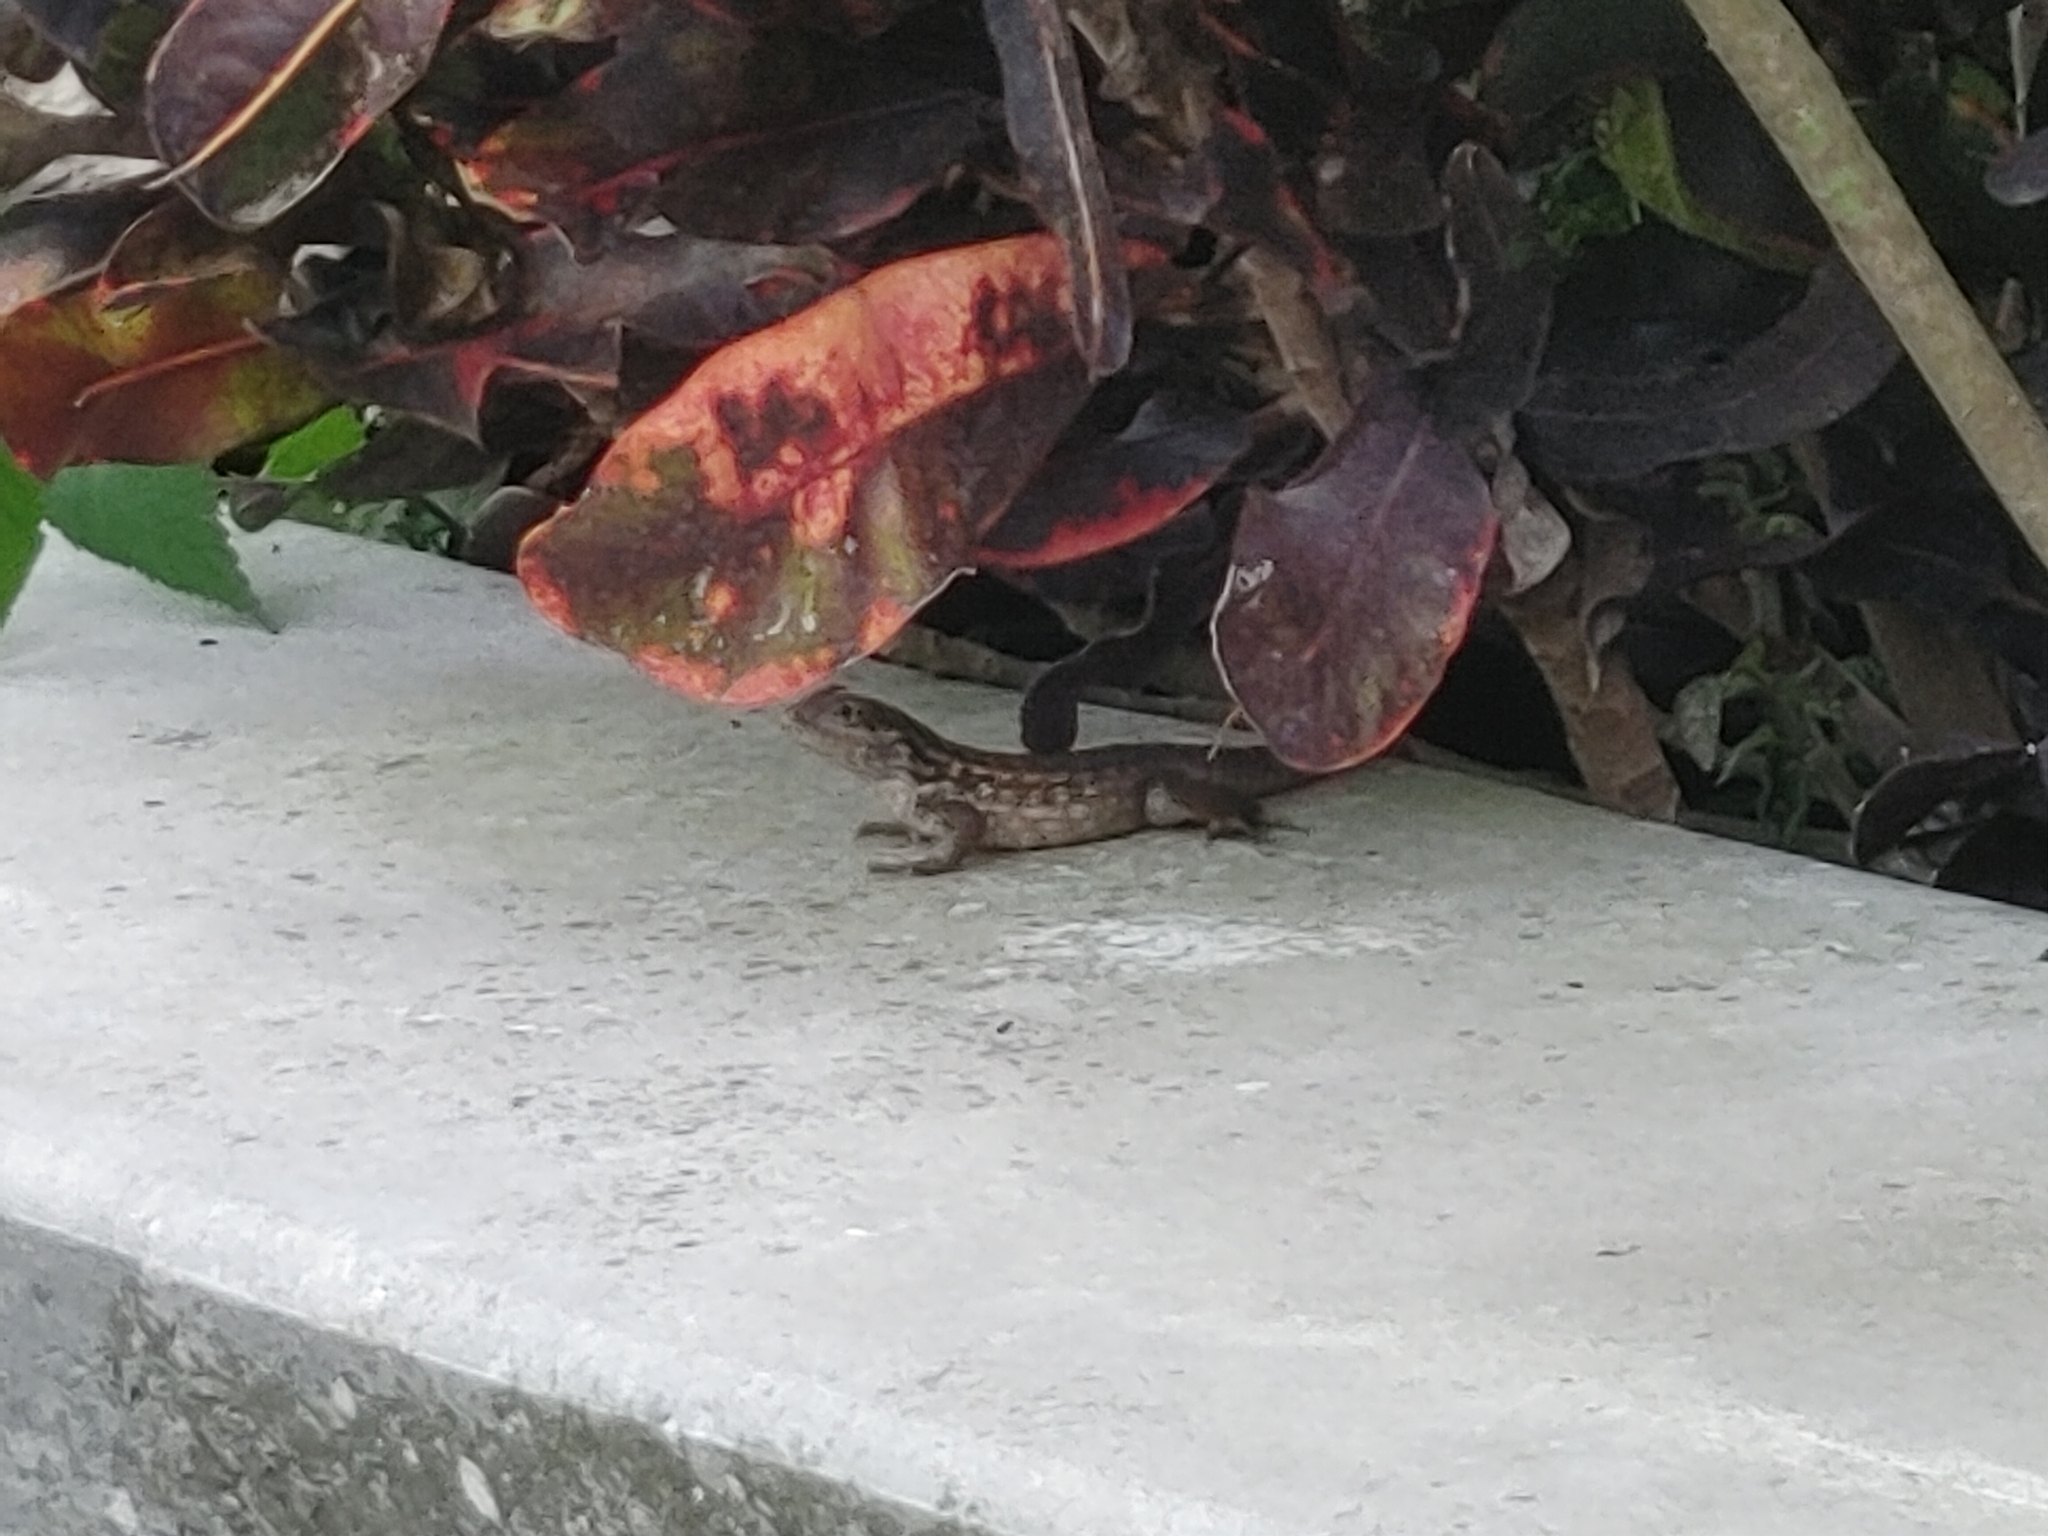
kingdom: Animalia
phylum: Chordata
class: Squamata
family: Leiocephalidae
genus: Leiocephalus
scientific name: Leiocephalus carinatus
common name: Northern curly-tailed lizard
